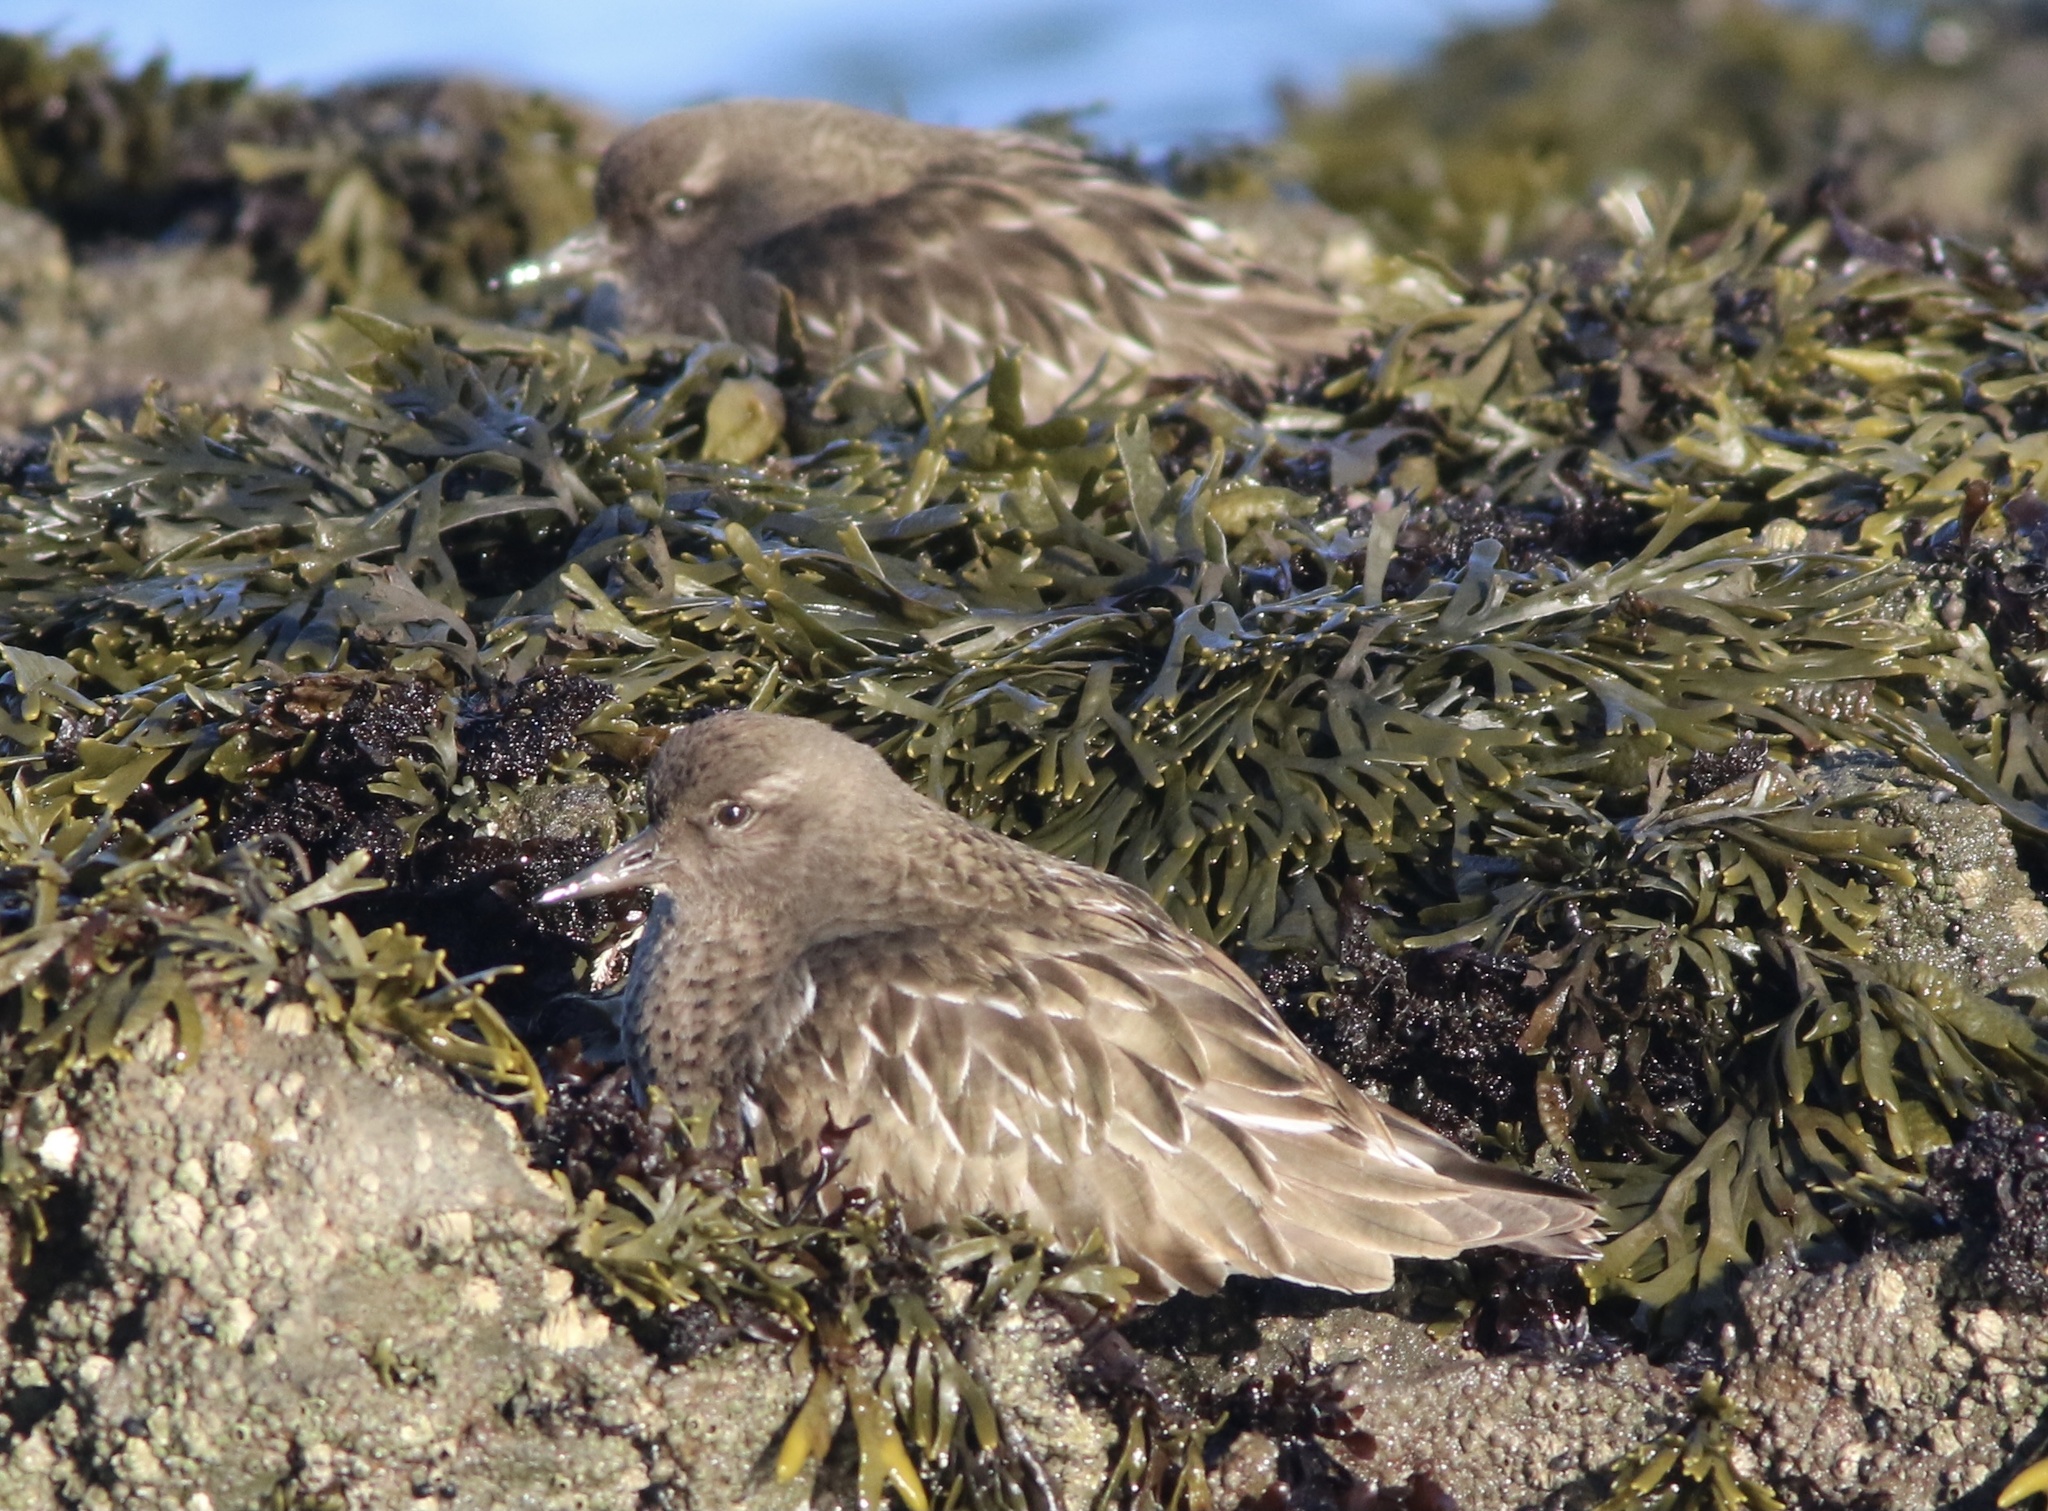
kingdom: Animalia
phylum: Chordata
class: Aves
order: Charadriiformes
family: Scolopacidae
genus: Arenaria
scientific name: Arenaria melanocephala
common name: Black turnstone
